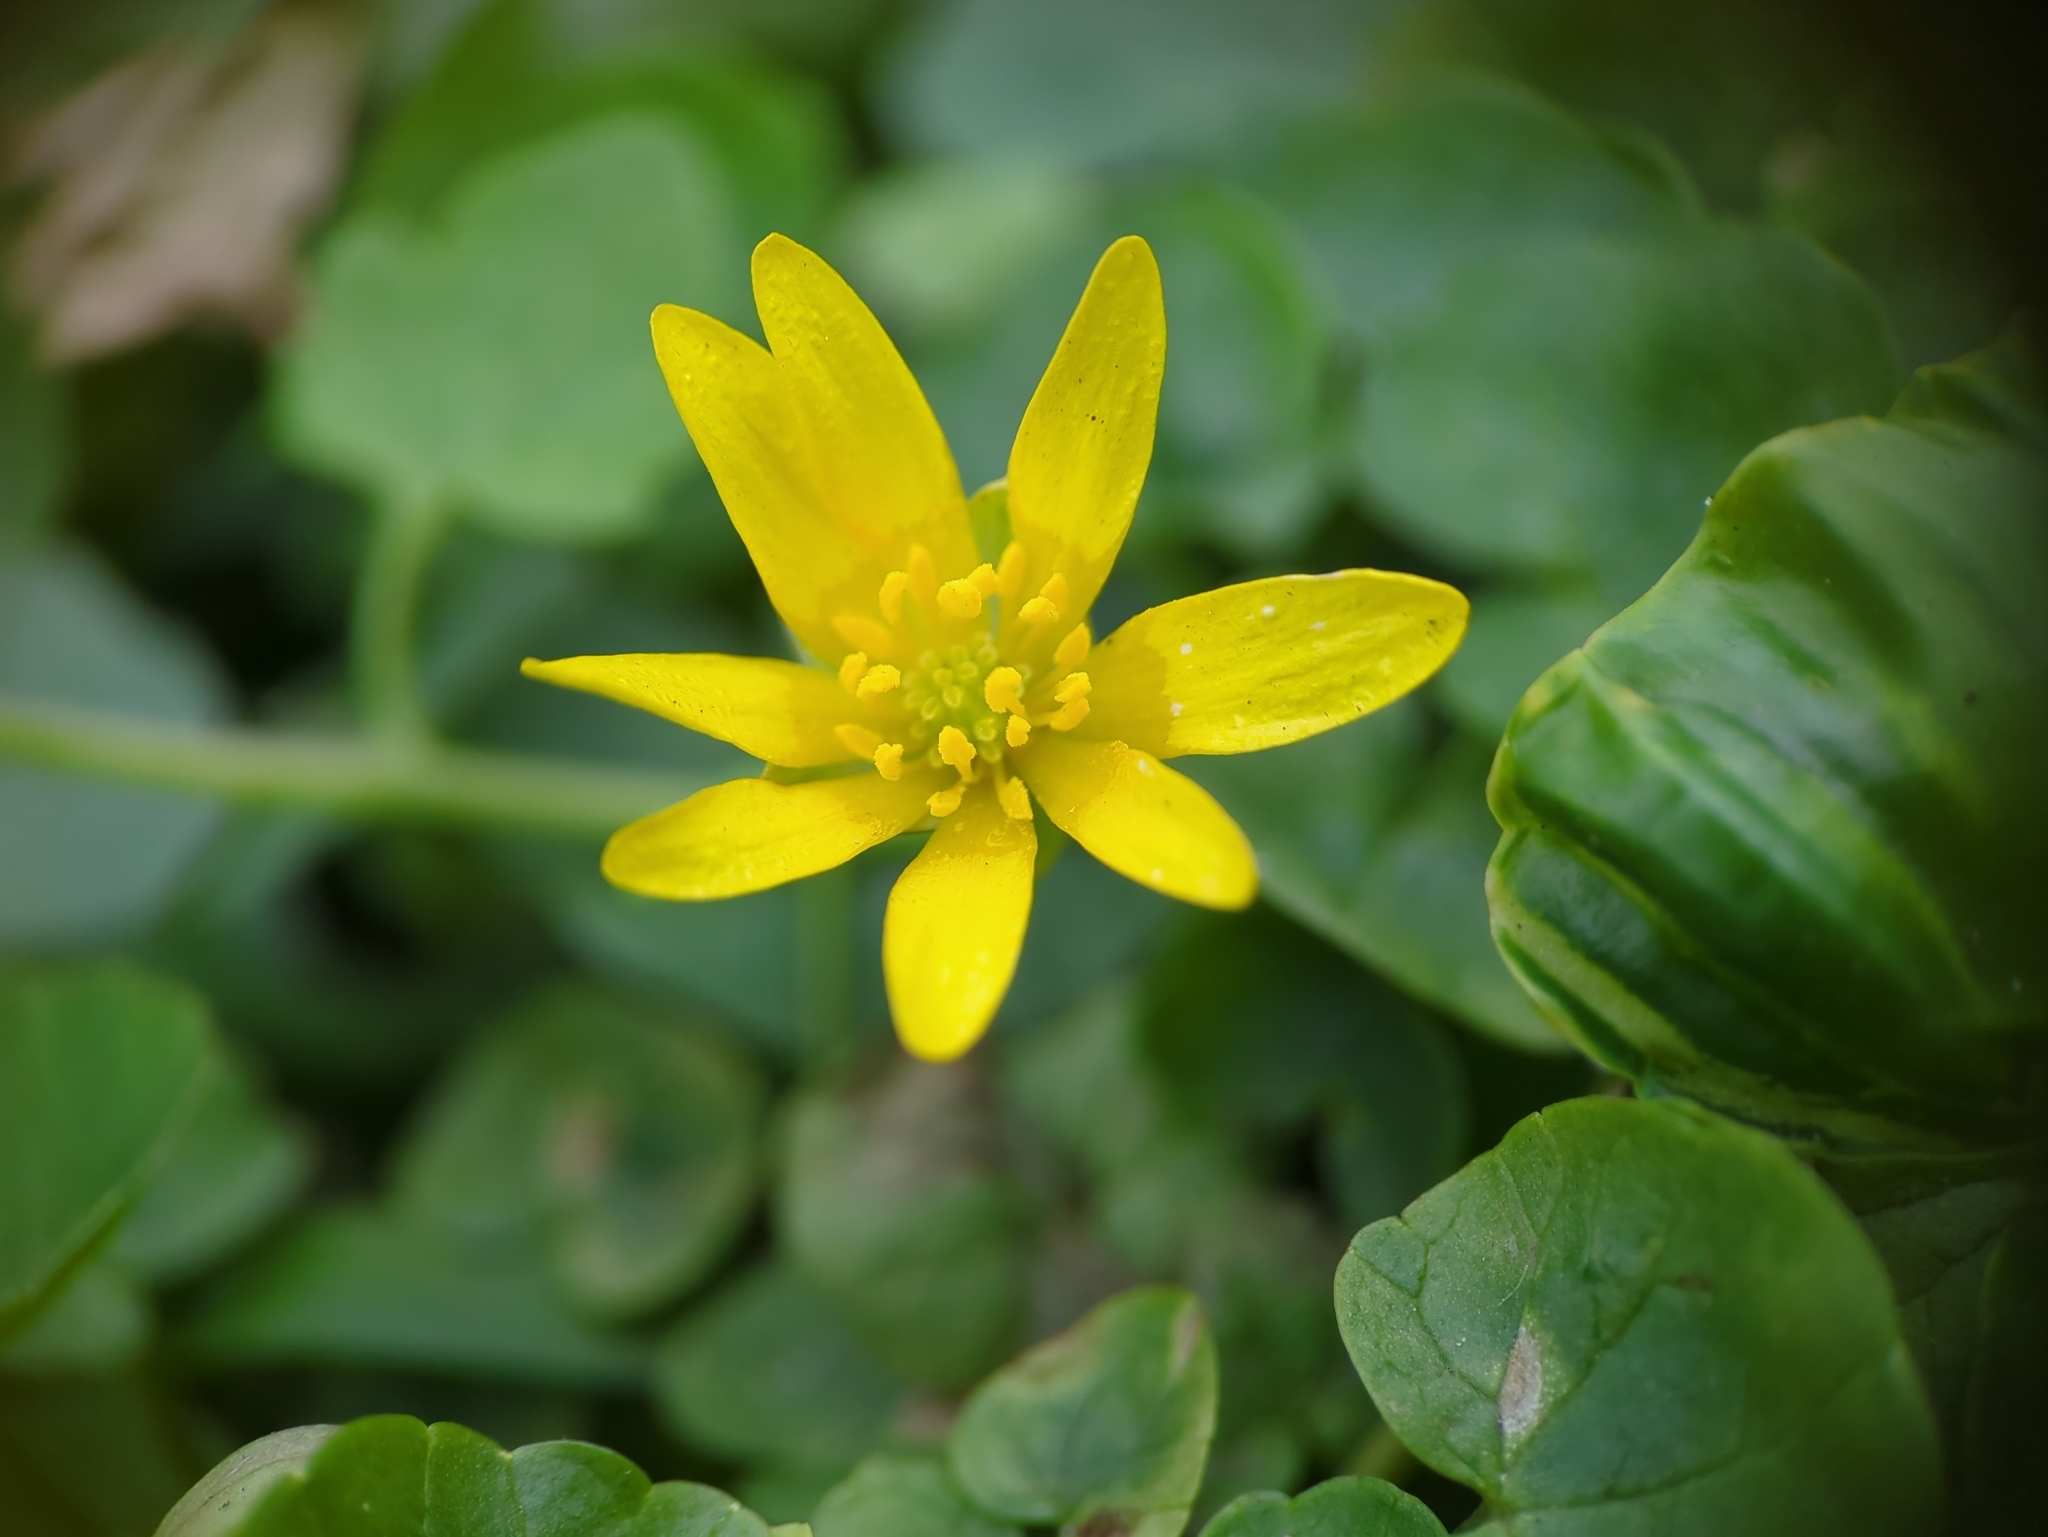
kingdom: Plantae
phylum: Tracheophyta
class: Magnoliopsida
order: Ranunculales
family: Ranunculaceae
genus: Ficaria
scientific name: Ficaria verna
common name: Lesser celandine
